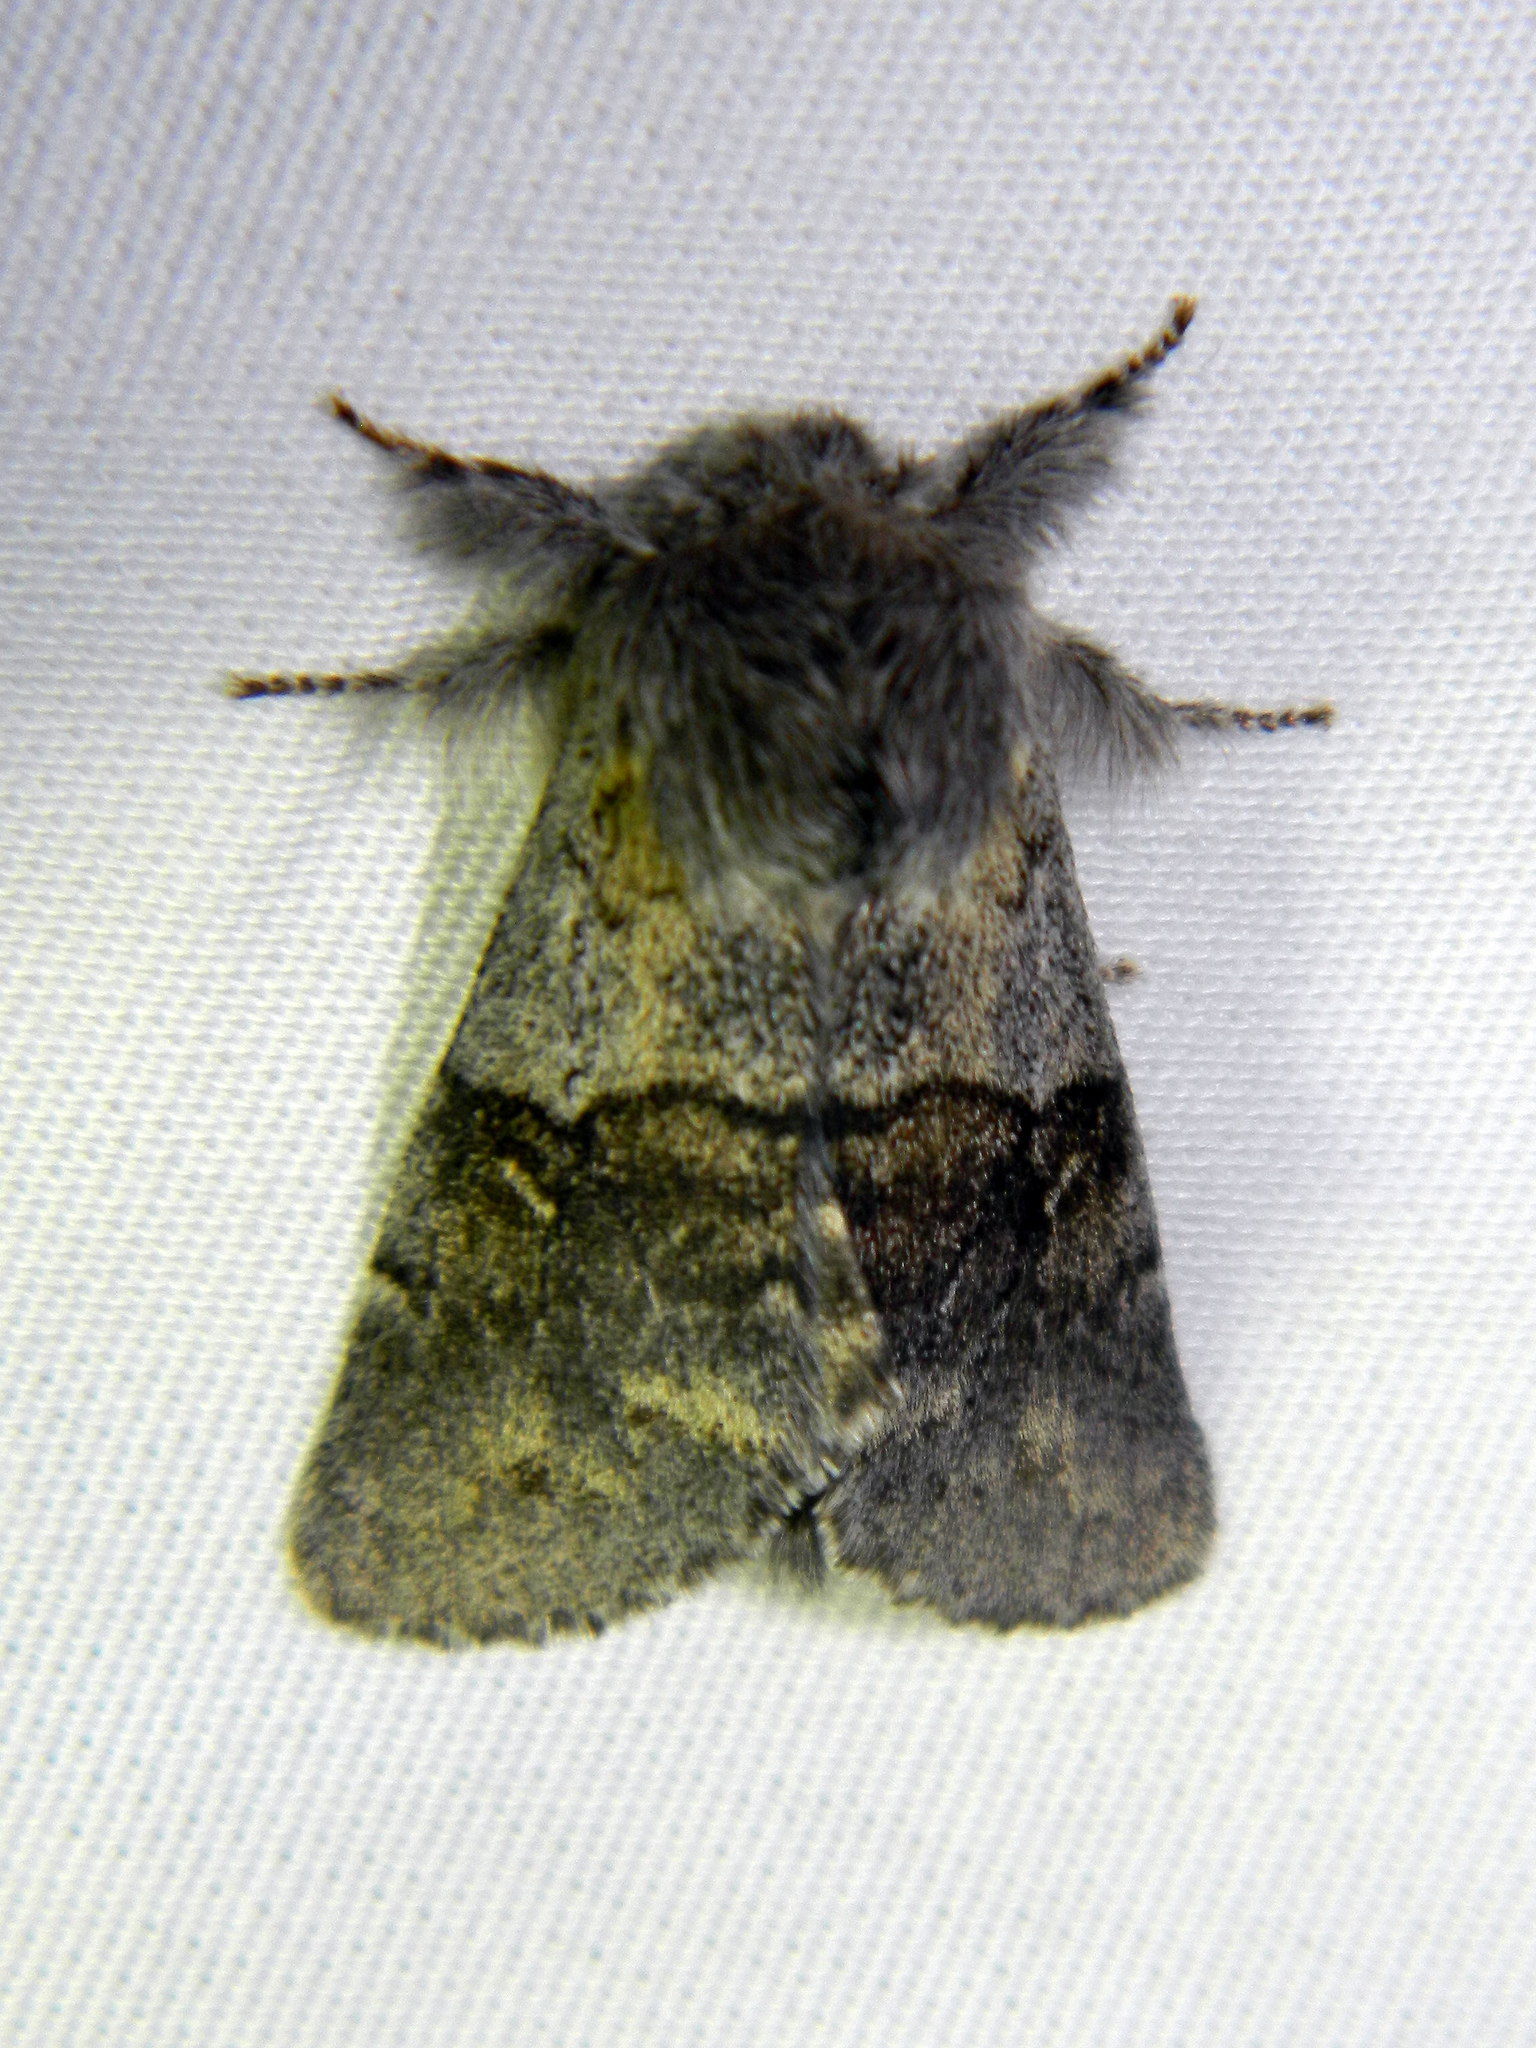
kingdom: Animalia
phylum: Arthropoda
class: Insecta
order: Lepidoptera
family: Notodontidae
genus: Gluphisia
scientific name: Gluphisia avimacula
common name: Four-spotted gluphisia moth
